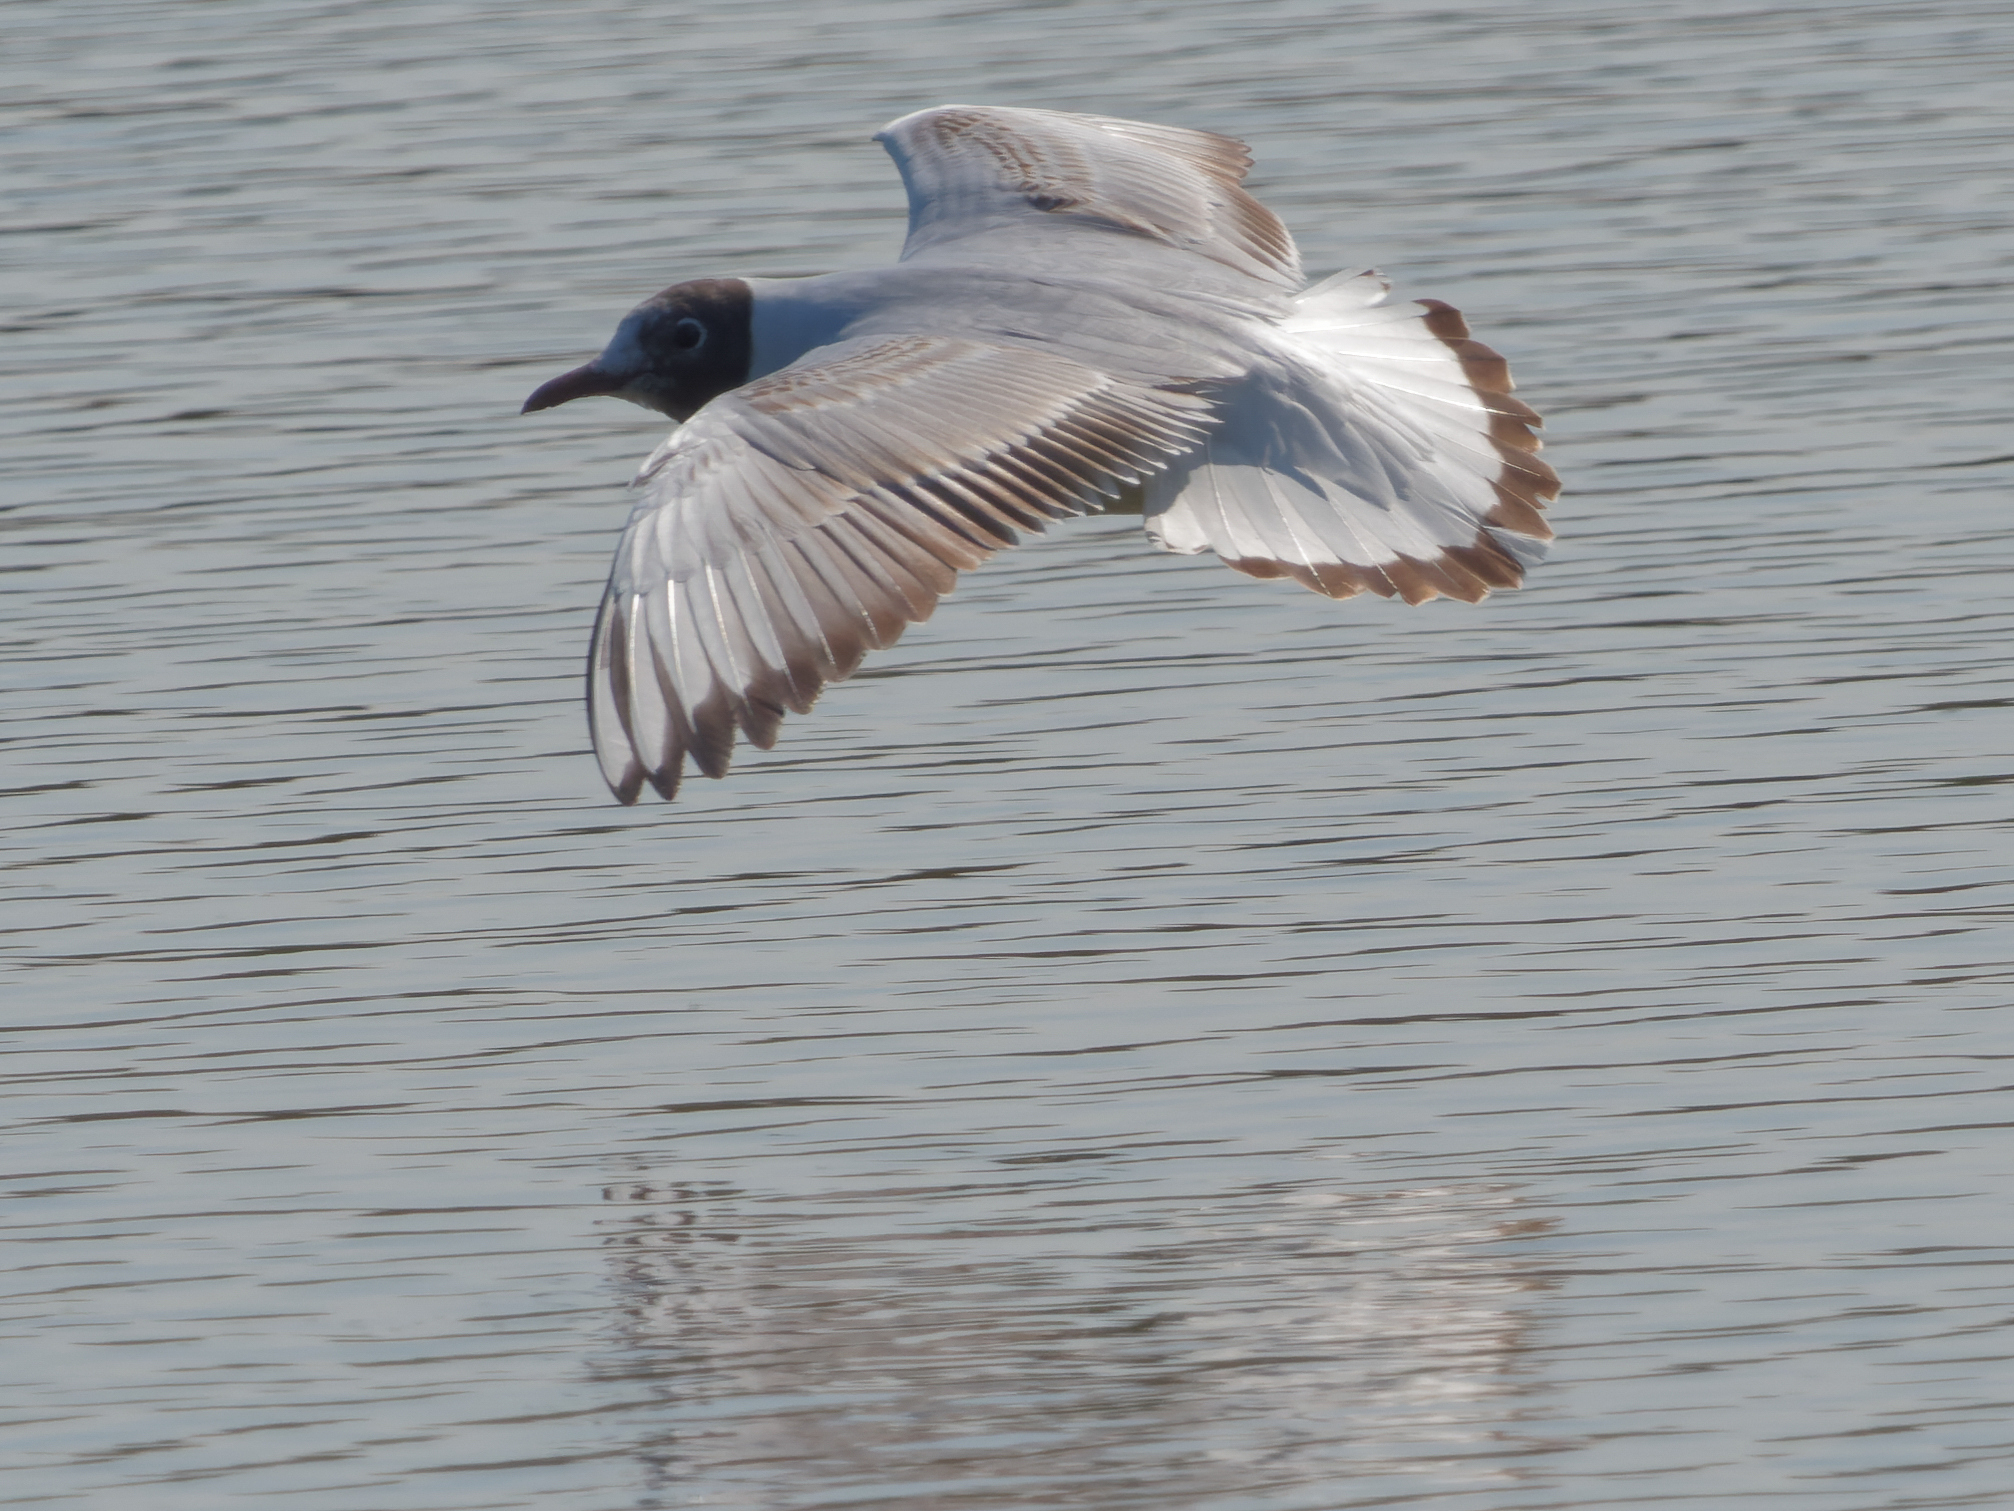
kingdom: Animalia
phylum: Chordata
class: Aves
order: Charadriiformes
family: Laridae
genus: Chroicocephalus
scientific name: Chroicocephalus ridibundus
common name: Black-headed gull
